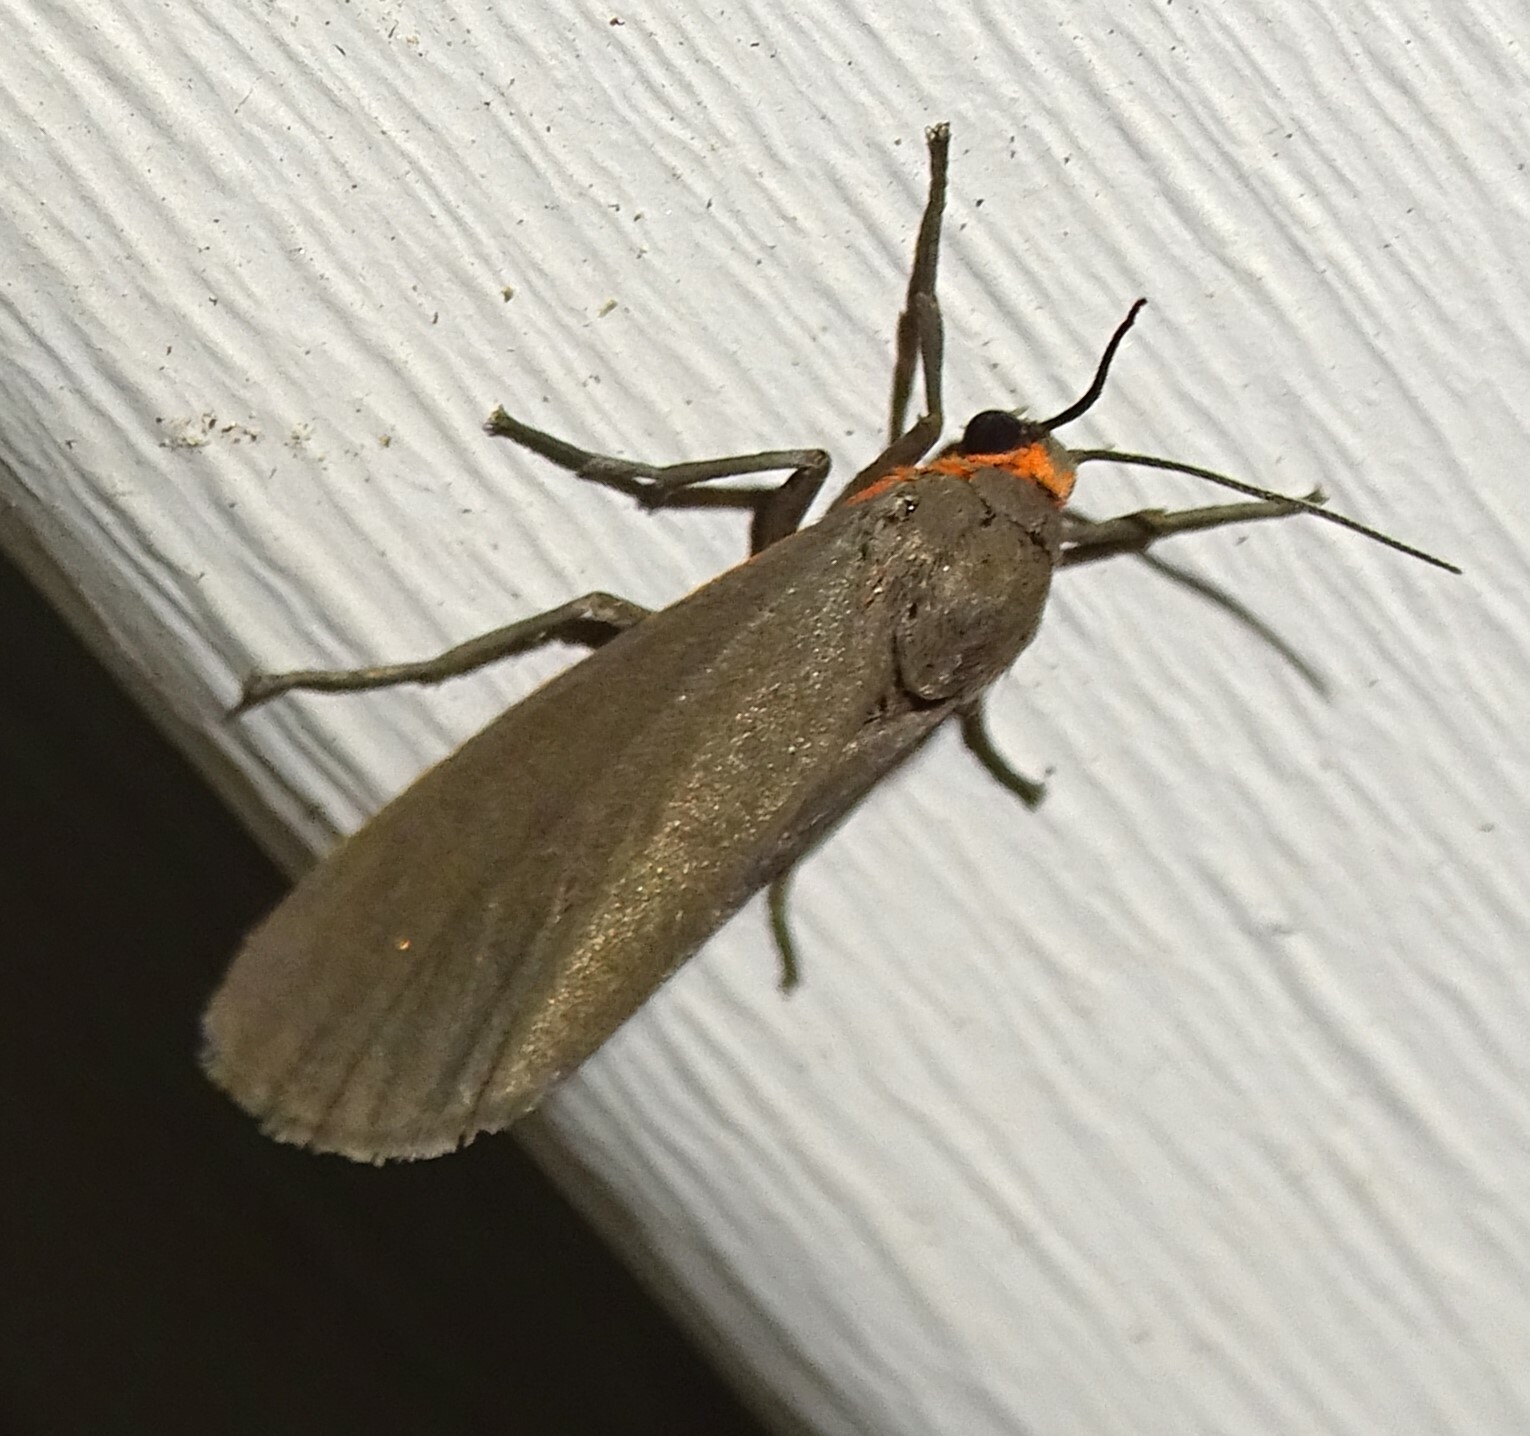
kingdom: Animalia
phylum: Arthropoda
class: Insecta
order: Lepidoptera
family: Erebidae
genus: Virbia
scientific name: Virbia laeta
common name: Joyful holomelina moth
